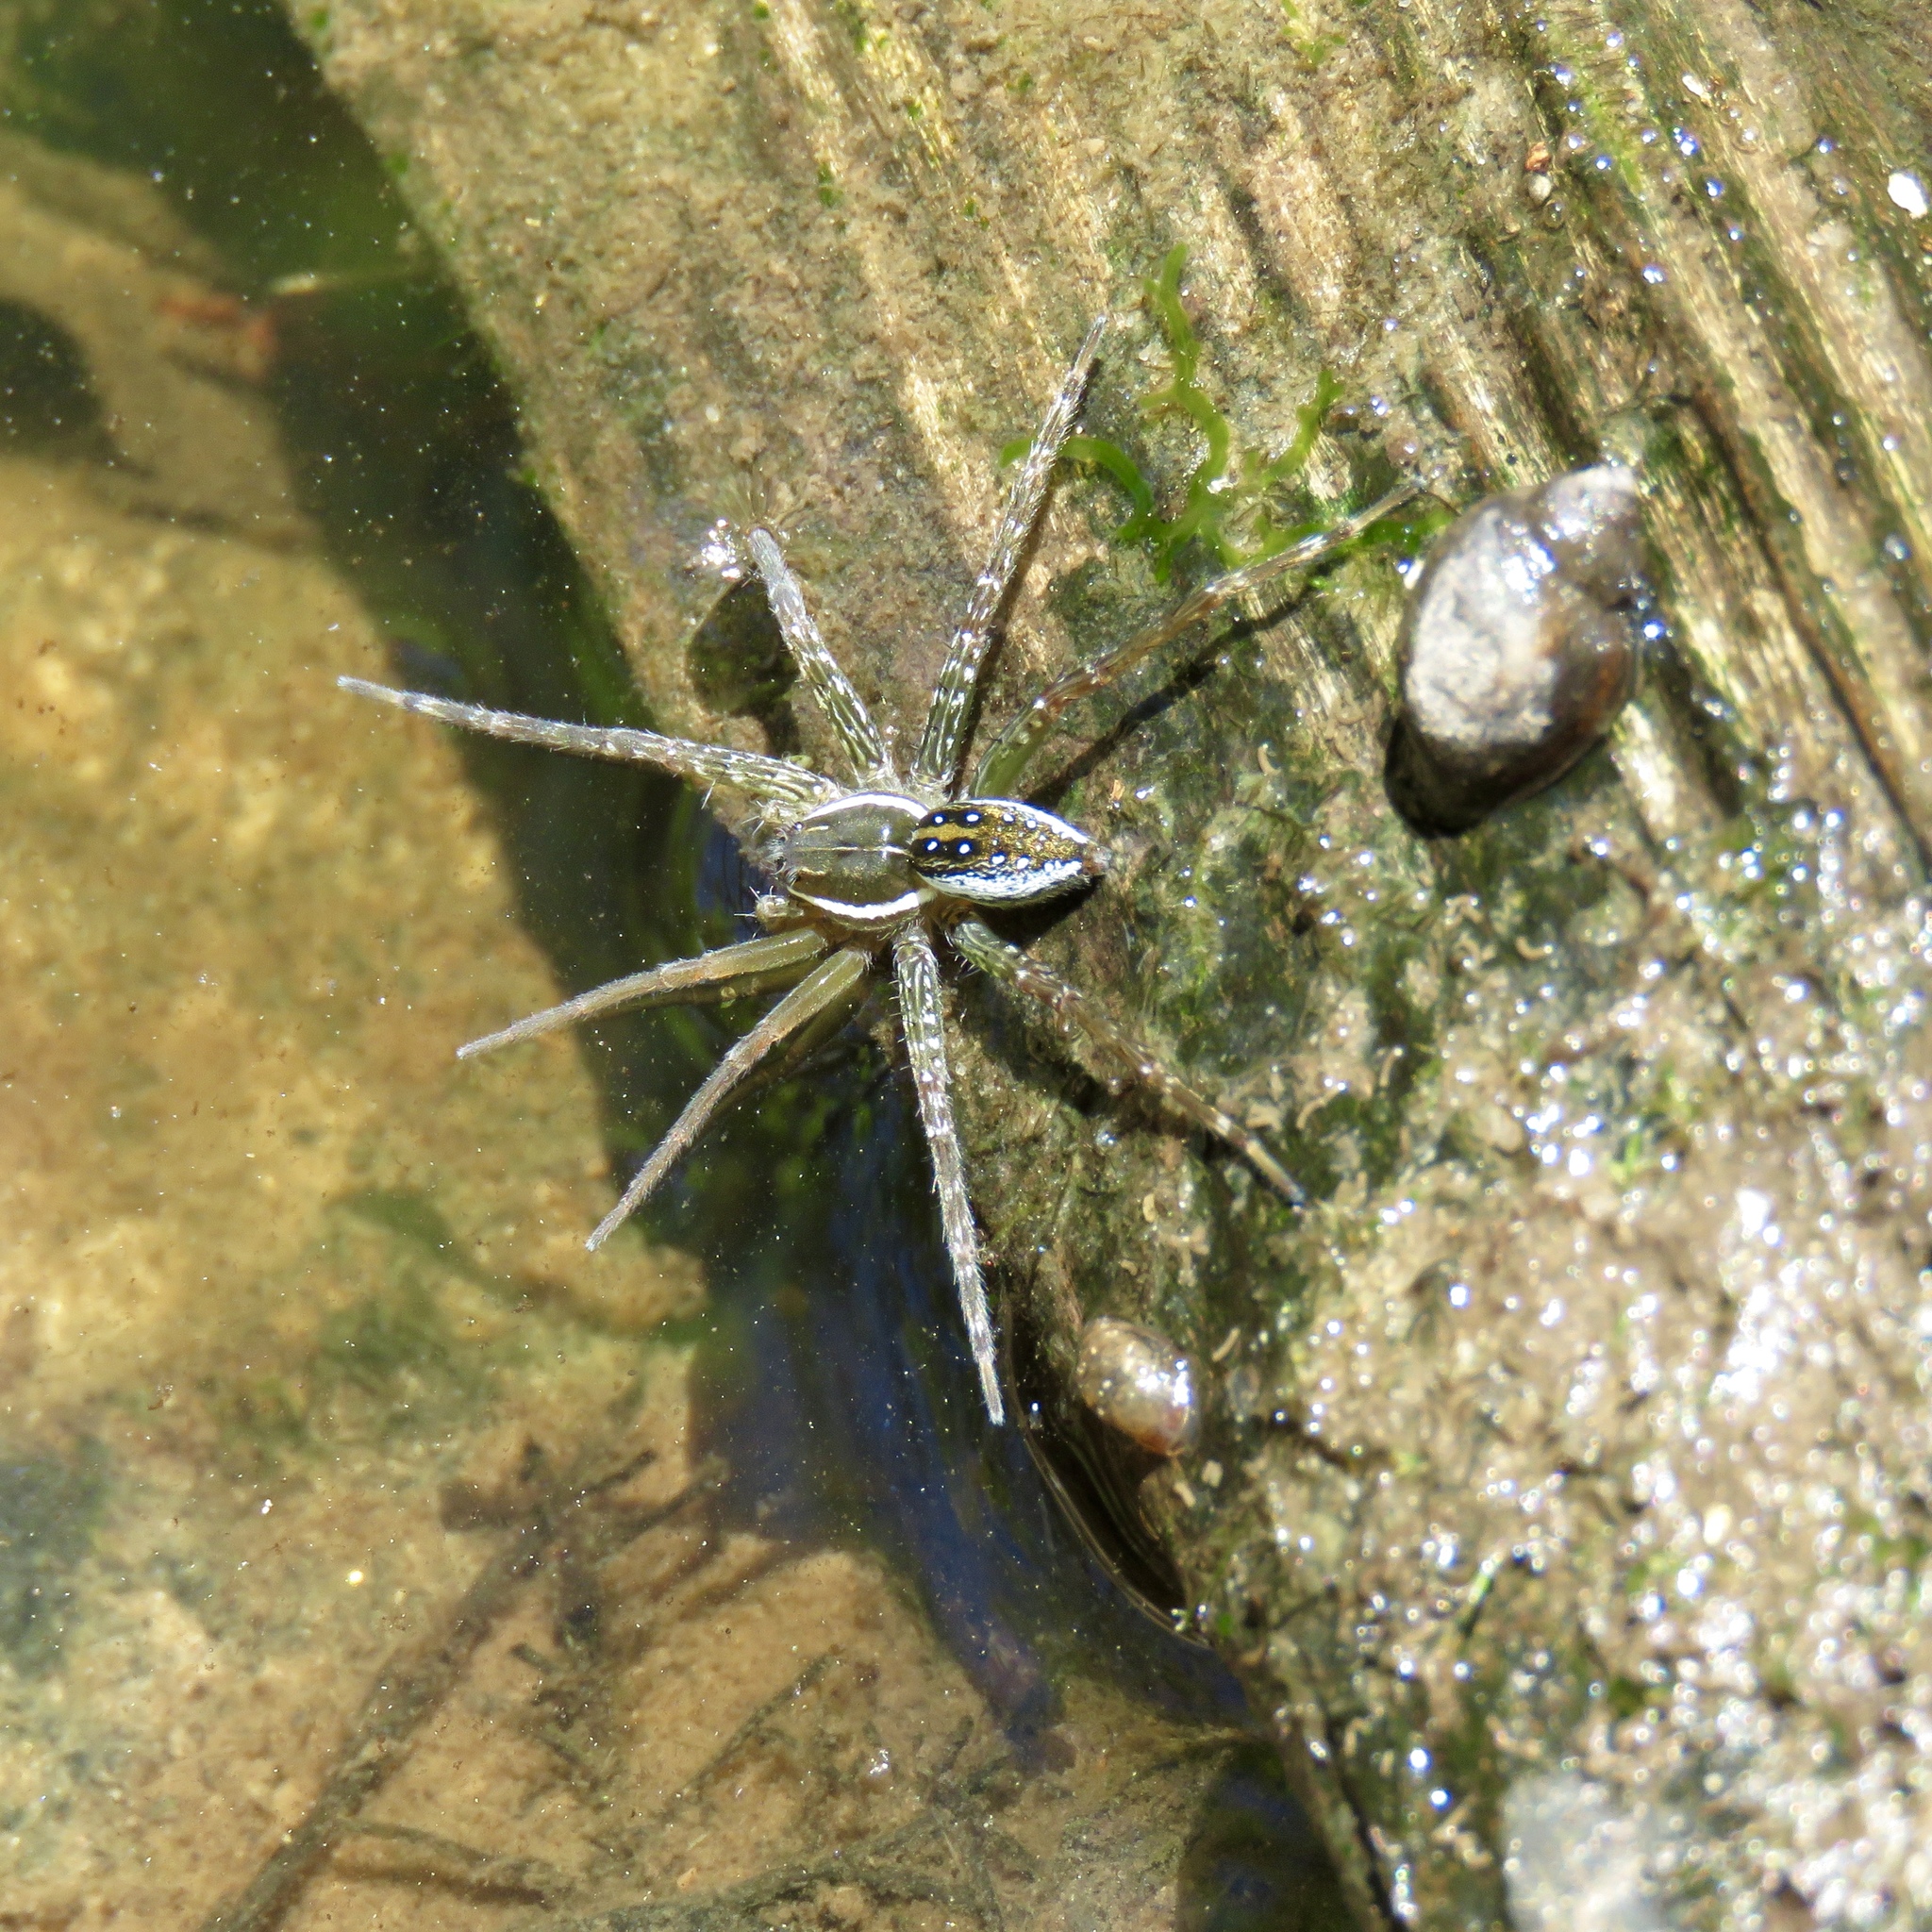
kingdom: Animalia
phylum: Arthropoda
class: Arachnida
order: Araneae
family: Pisauridae
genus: Dolomedes
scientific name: Dolomedes triton
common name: Six-spotted fishing spider
